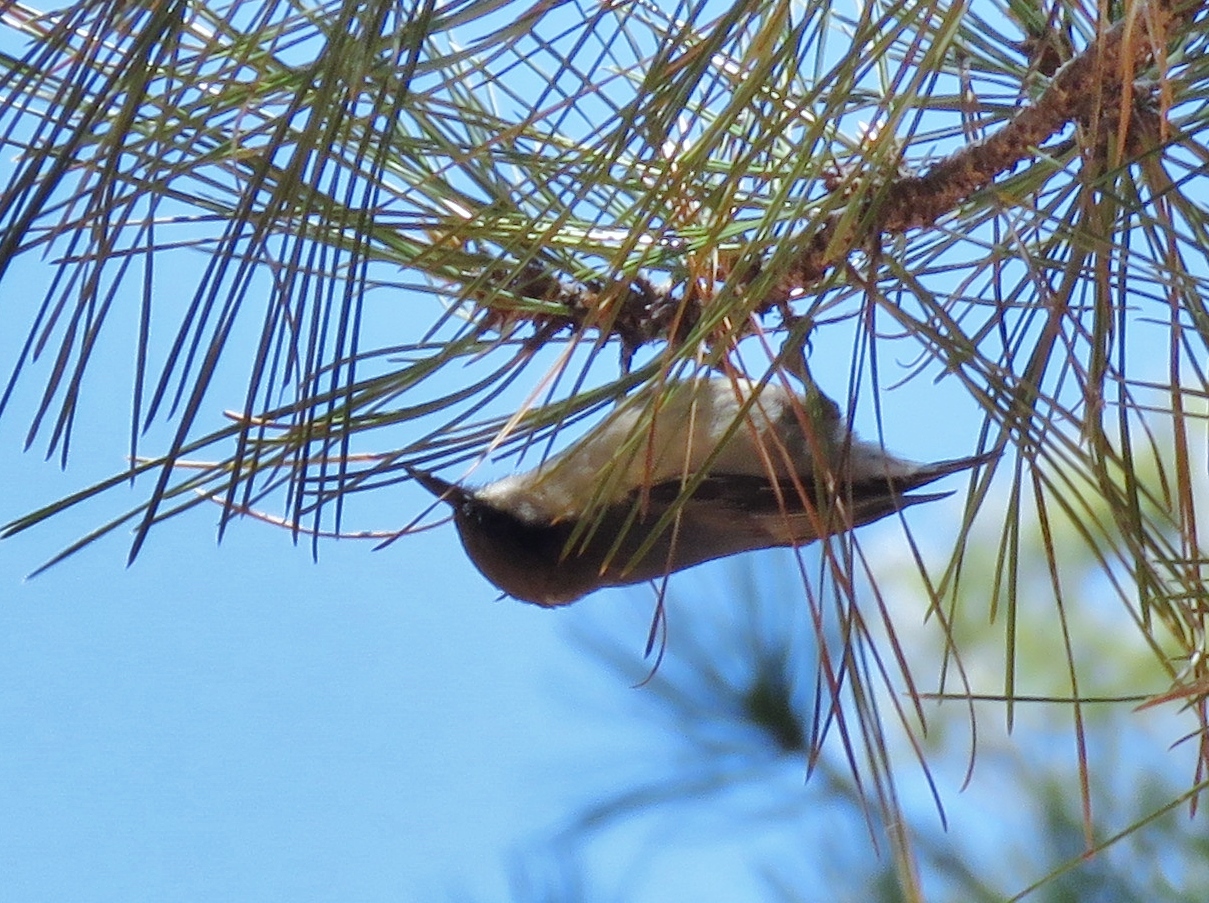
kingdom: Animalia
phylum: Chordata
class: Aves
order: Passeriformes
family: Sittidae
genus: Sitta
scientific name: Sitta pygmaea
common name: Pygmy nuthatch
